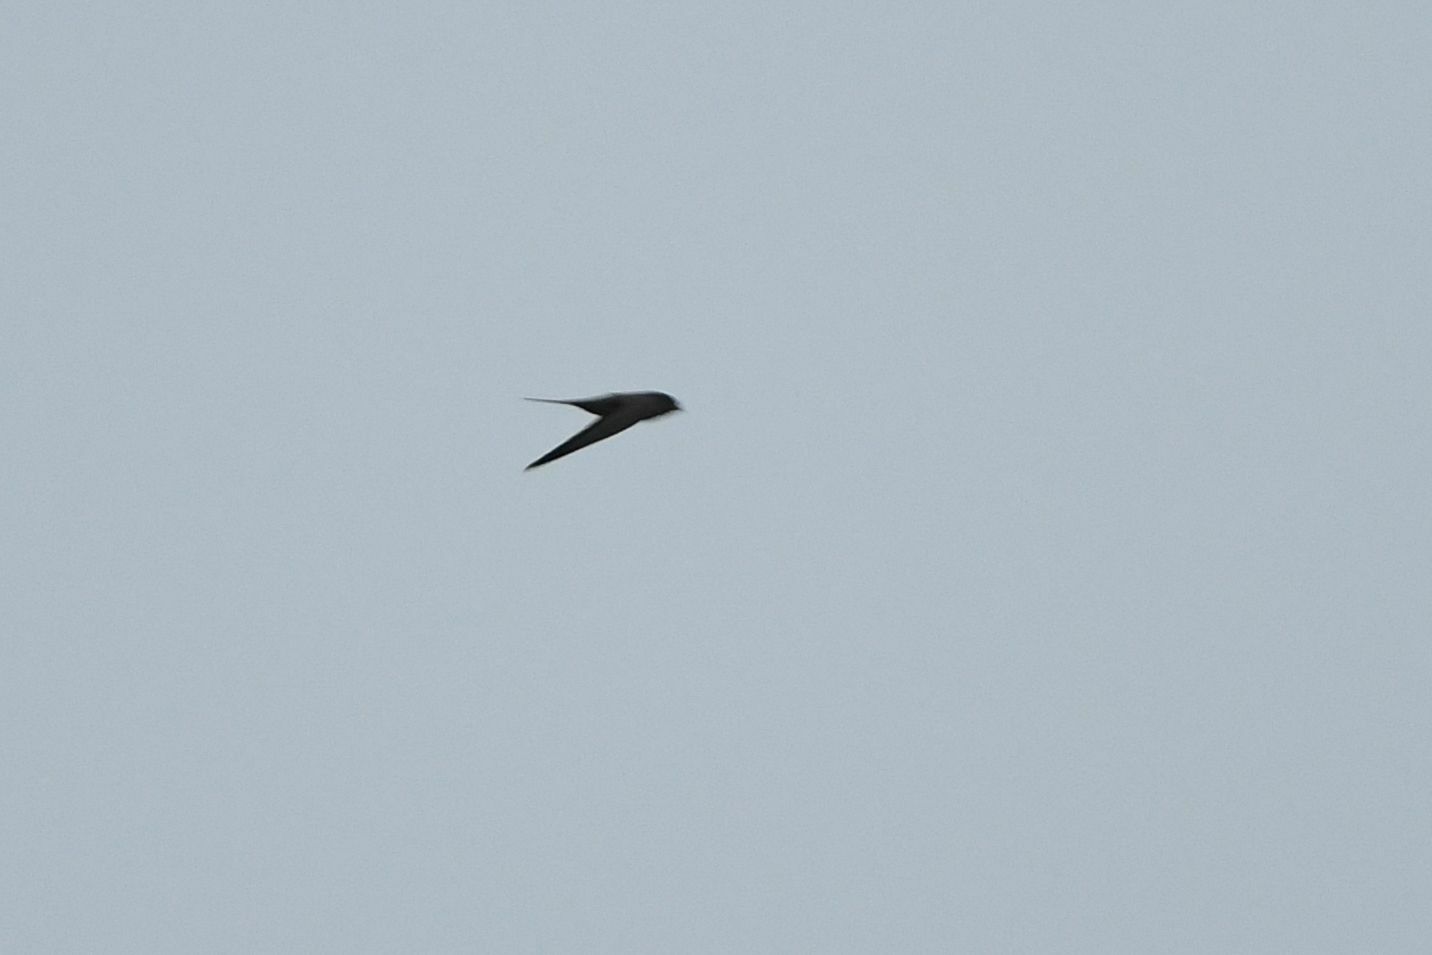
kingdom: Animalia
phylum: Chordata
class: Aves
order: Apodiformes
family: Apodidae
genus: Cypsiurus
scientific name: Cypsiurus parvus
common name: African palm swift
